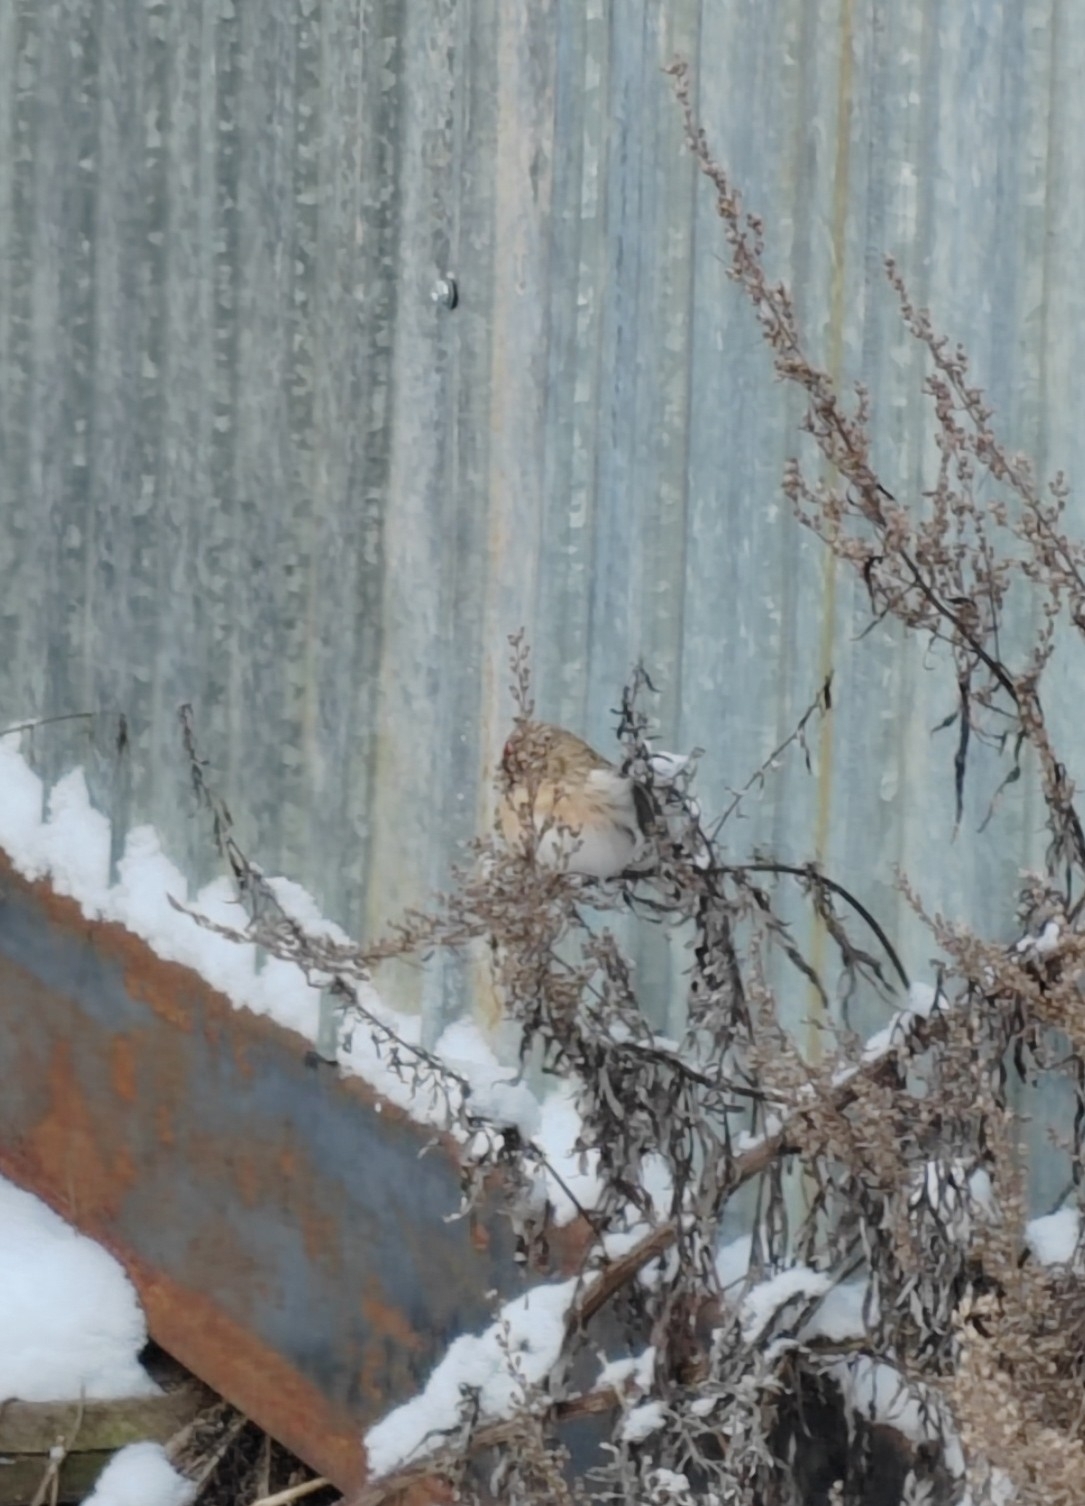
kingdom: Animalia
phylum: Chordata
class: Aves
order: Passeriformes
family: Fringillidae
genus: Acanthis
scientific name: Acanthis hornemanni
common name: Arctic redpoll
